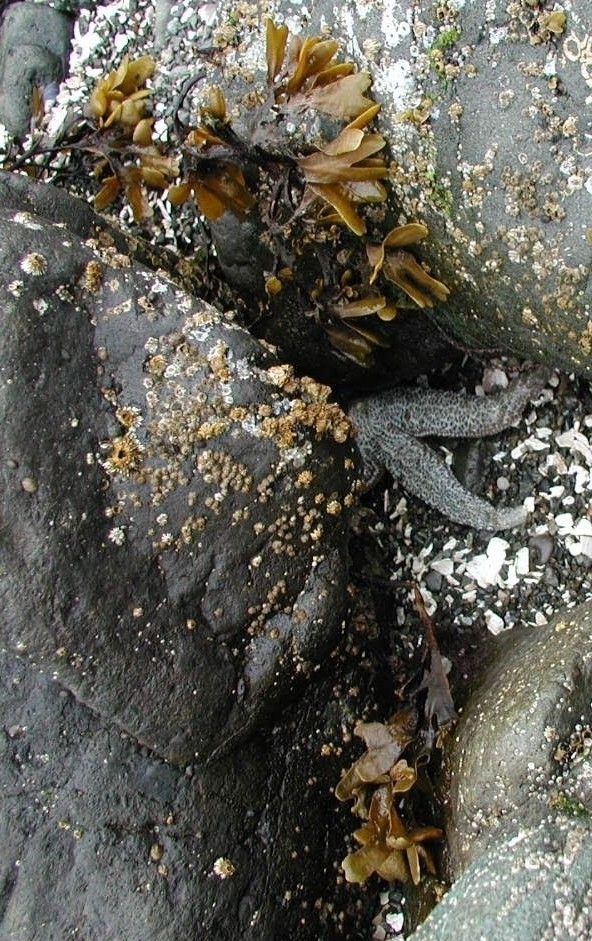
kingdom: Chromista
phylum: Ochrophyta
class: Phaeophyceae
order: Fucales
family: Fucaceae
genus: Fucus
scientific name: Fucus distichus
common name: Rockweed
